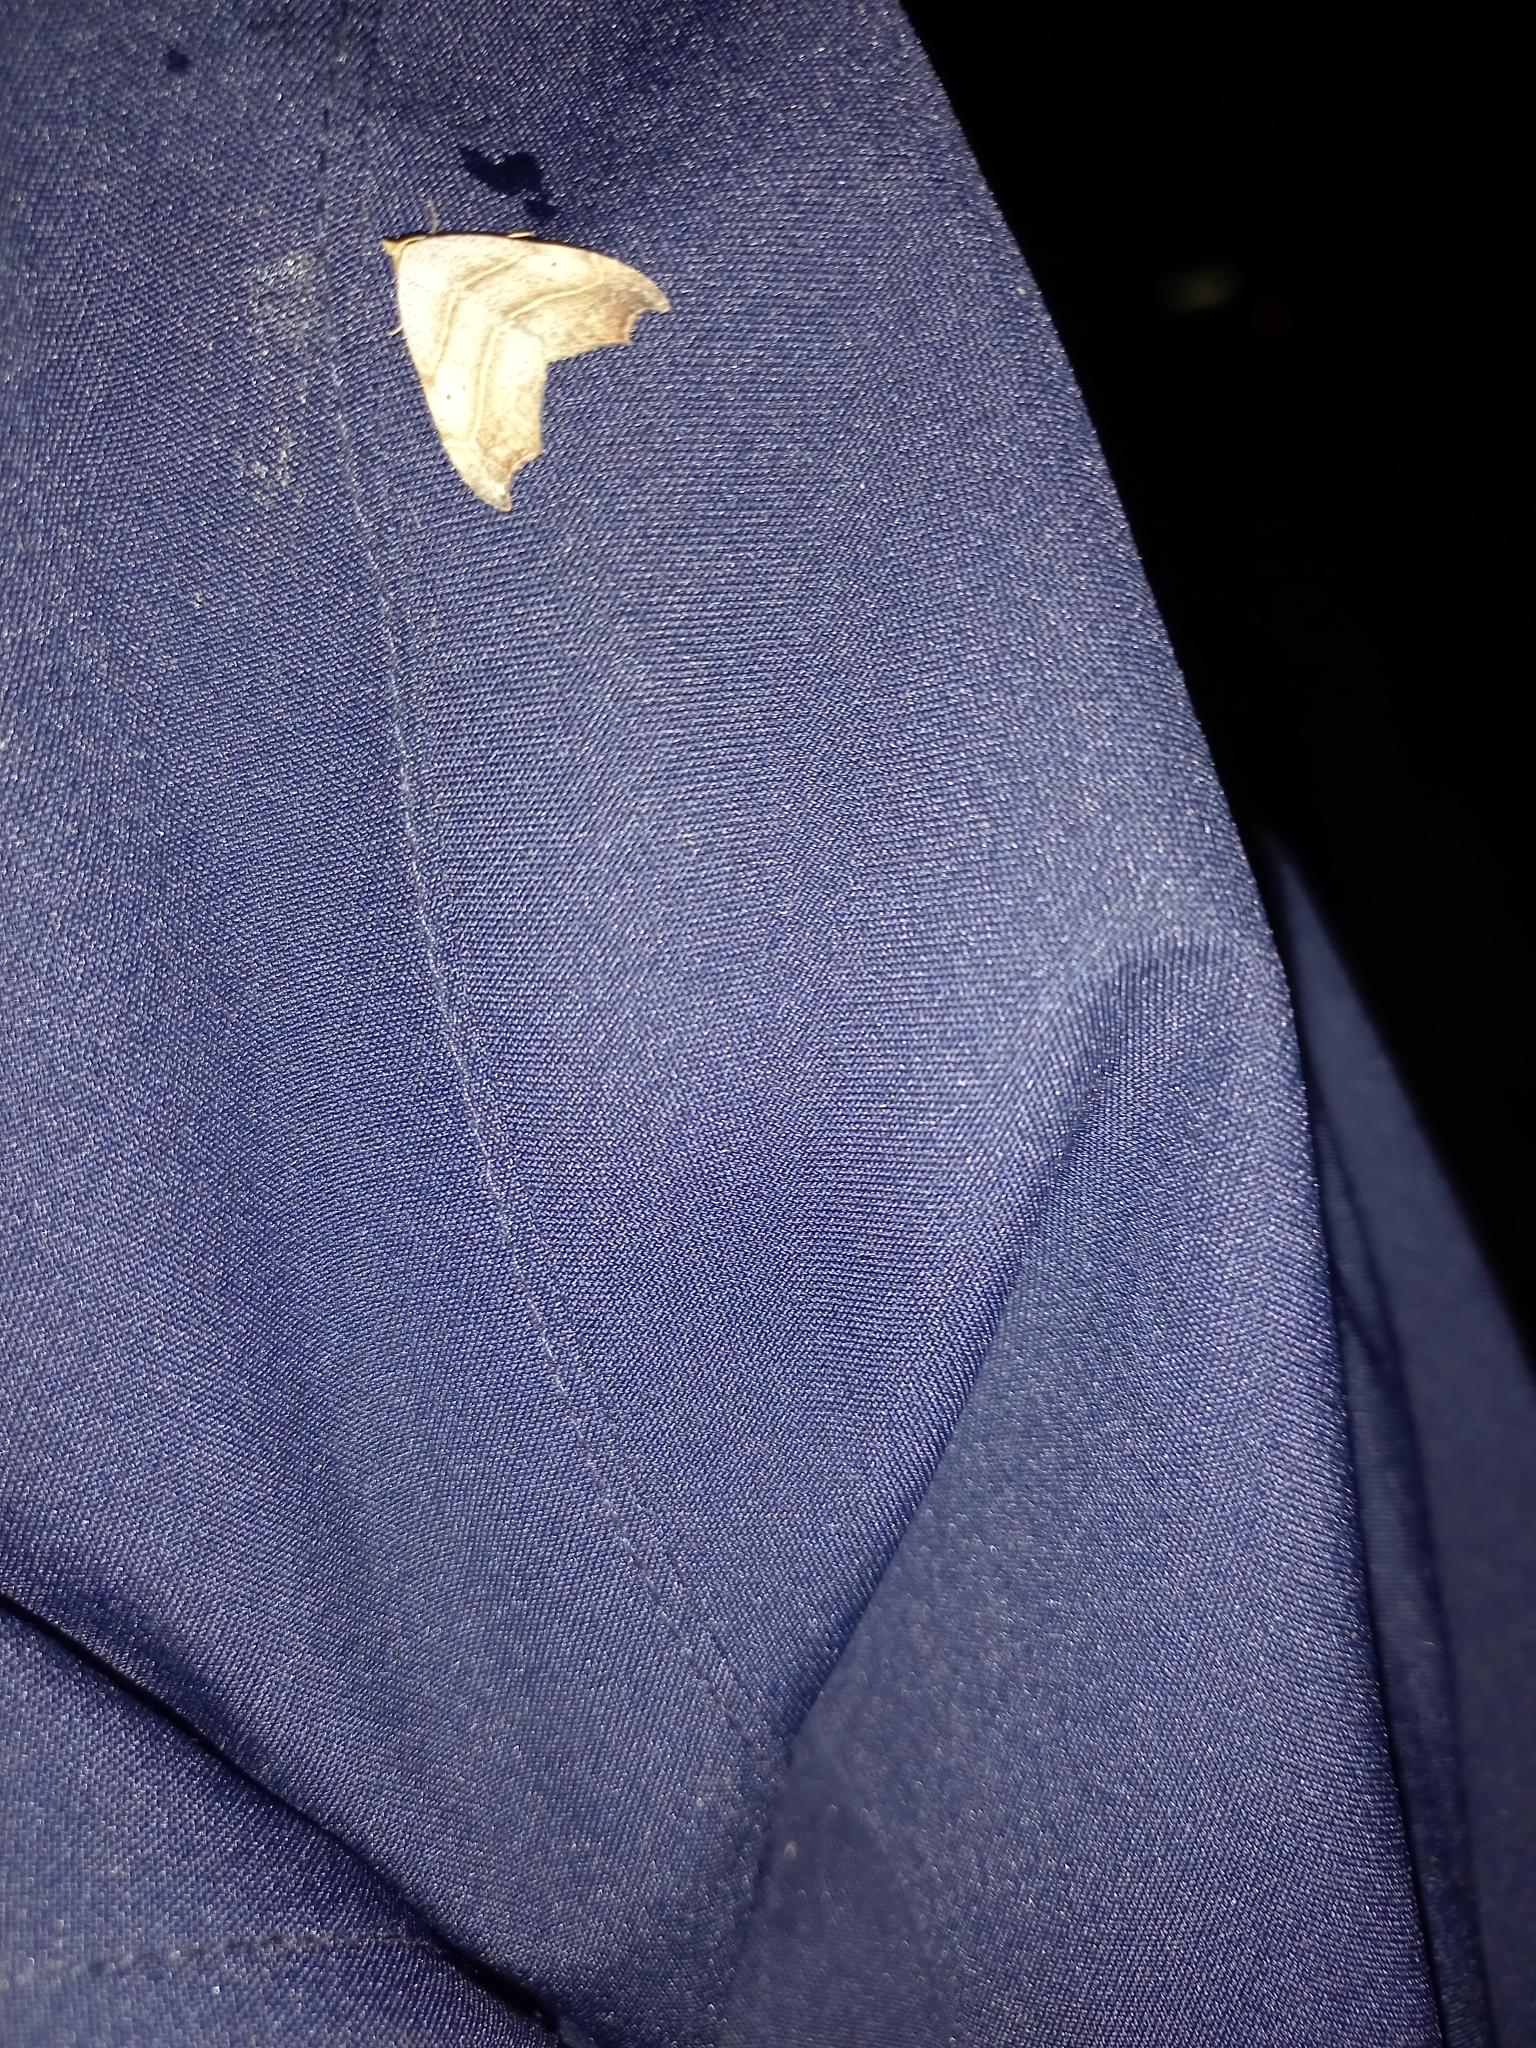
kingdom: Animalia
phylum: Arthropoda
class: Insecta
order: Lepidoptera
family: Erebidae
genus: Laspeyria
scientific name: Laspeyria flexula
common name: Beautiful hook-tip
